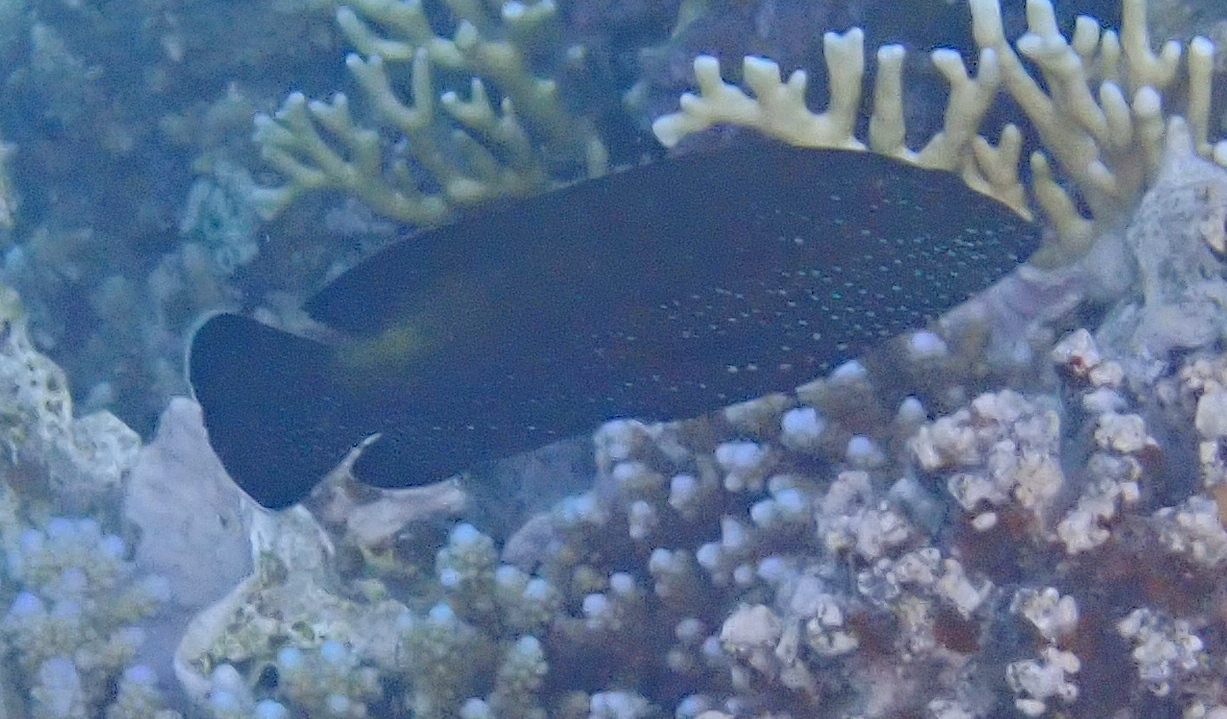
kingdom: Animalia
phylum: Chordata
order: Perciformes
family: Serranidae
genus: Cephalopholis
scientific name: Cephalopholis hemistiktos
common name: Halfspotted hind
